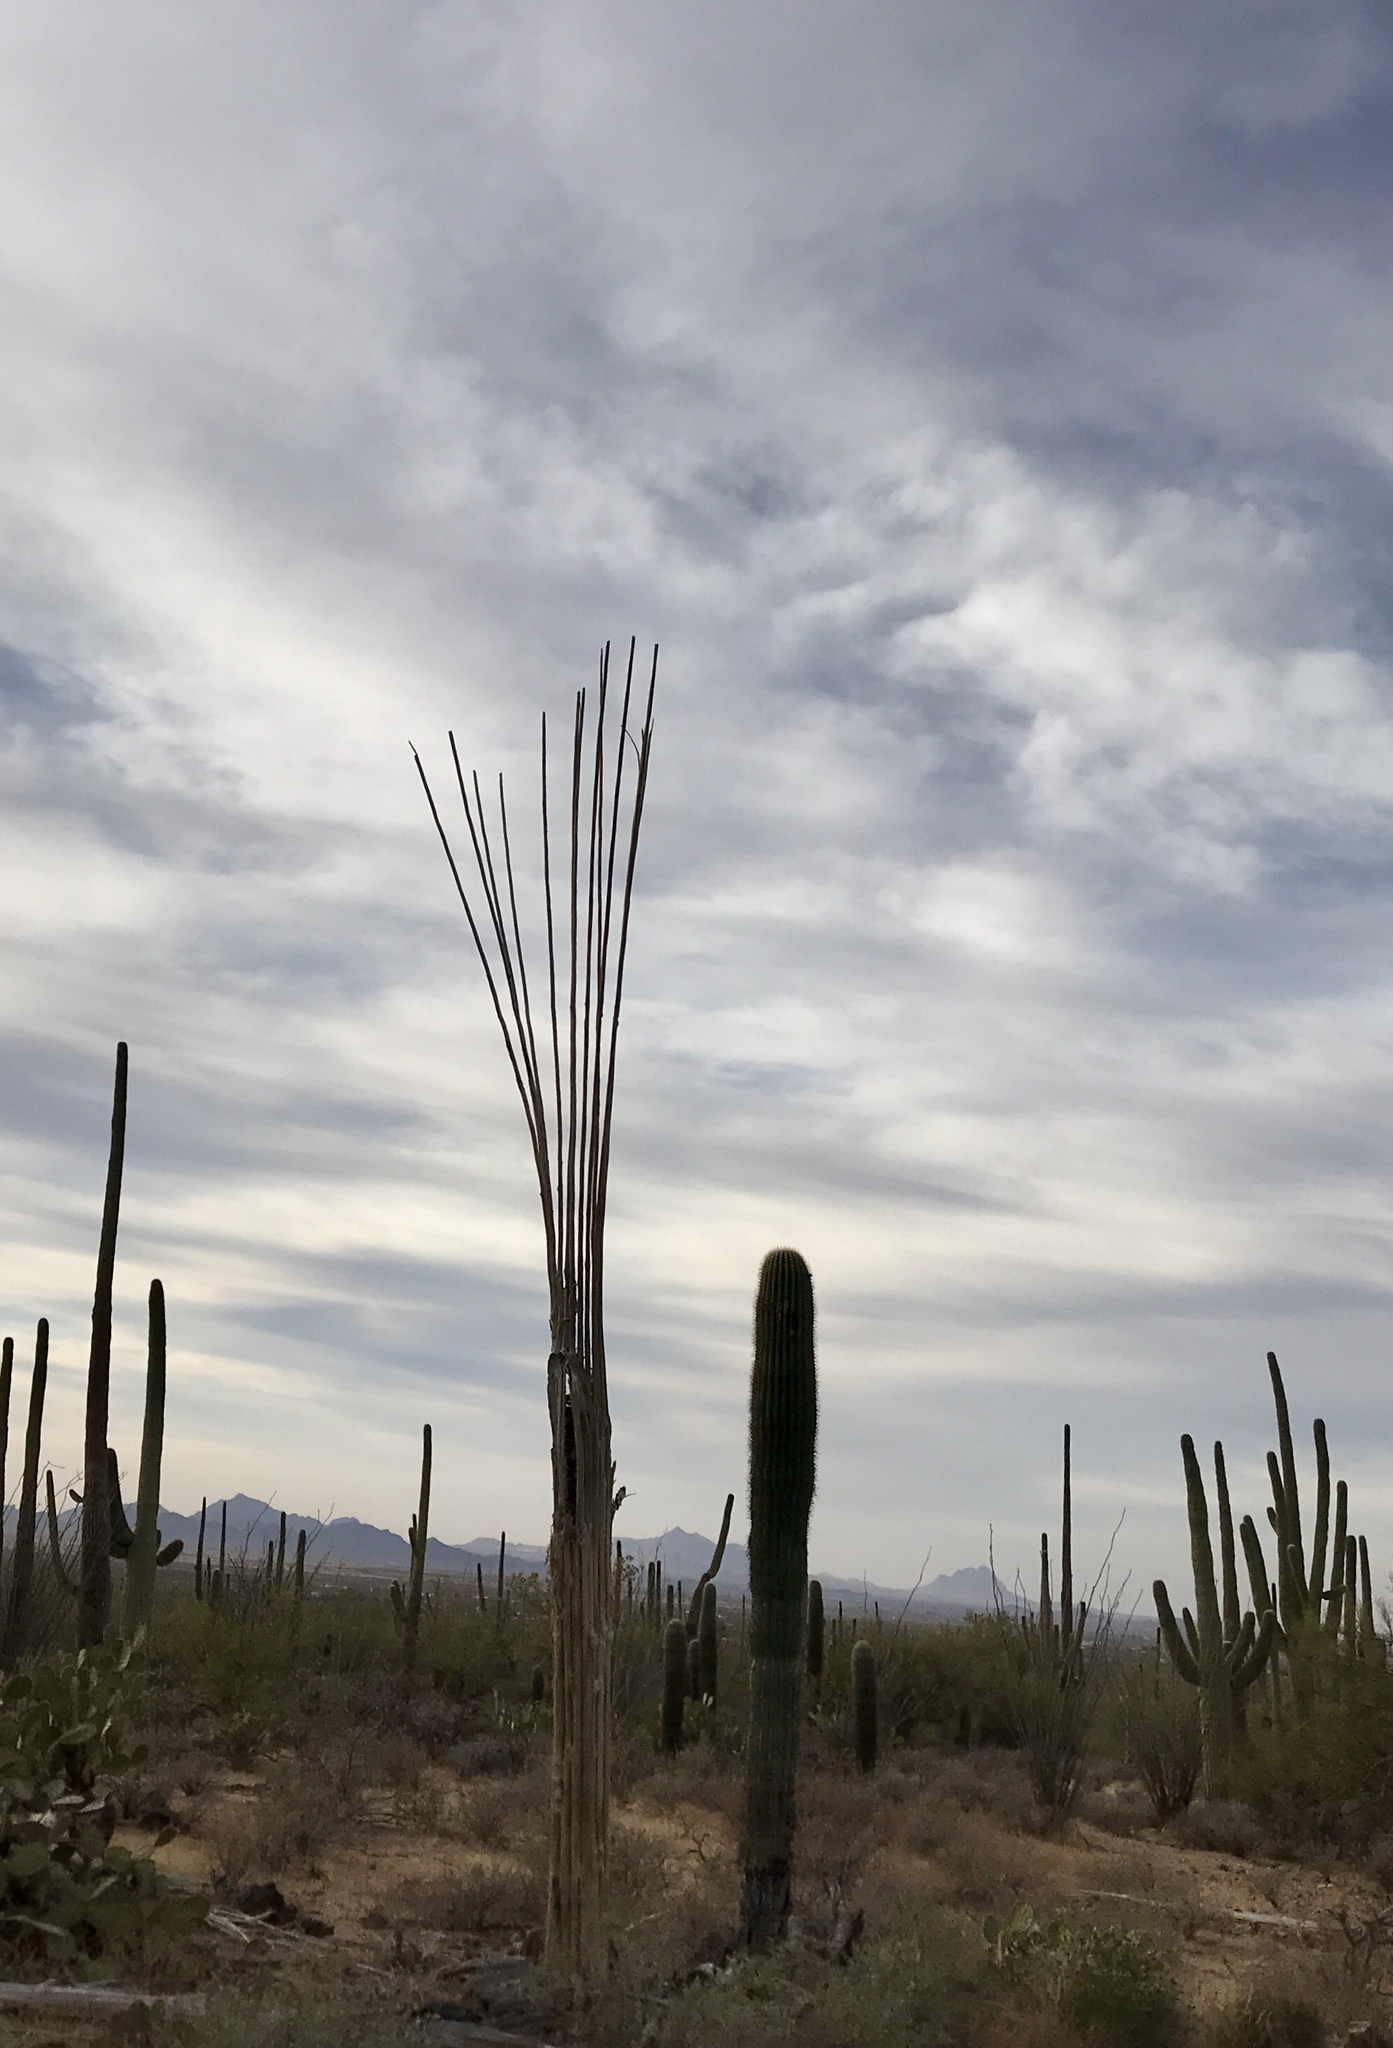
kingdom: Plantae
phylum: Tracheophyta
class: Magnoliopsida
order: Caryophyllales
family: Cactaceae
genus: Carnegiea
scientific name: Carnegiea gigantea
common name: Saguaro
